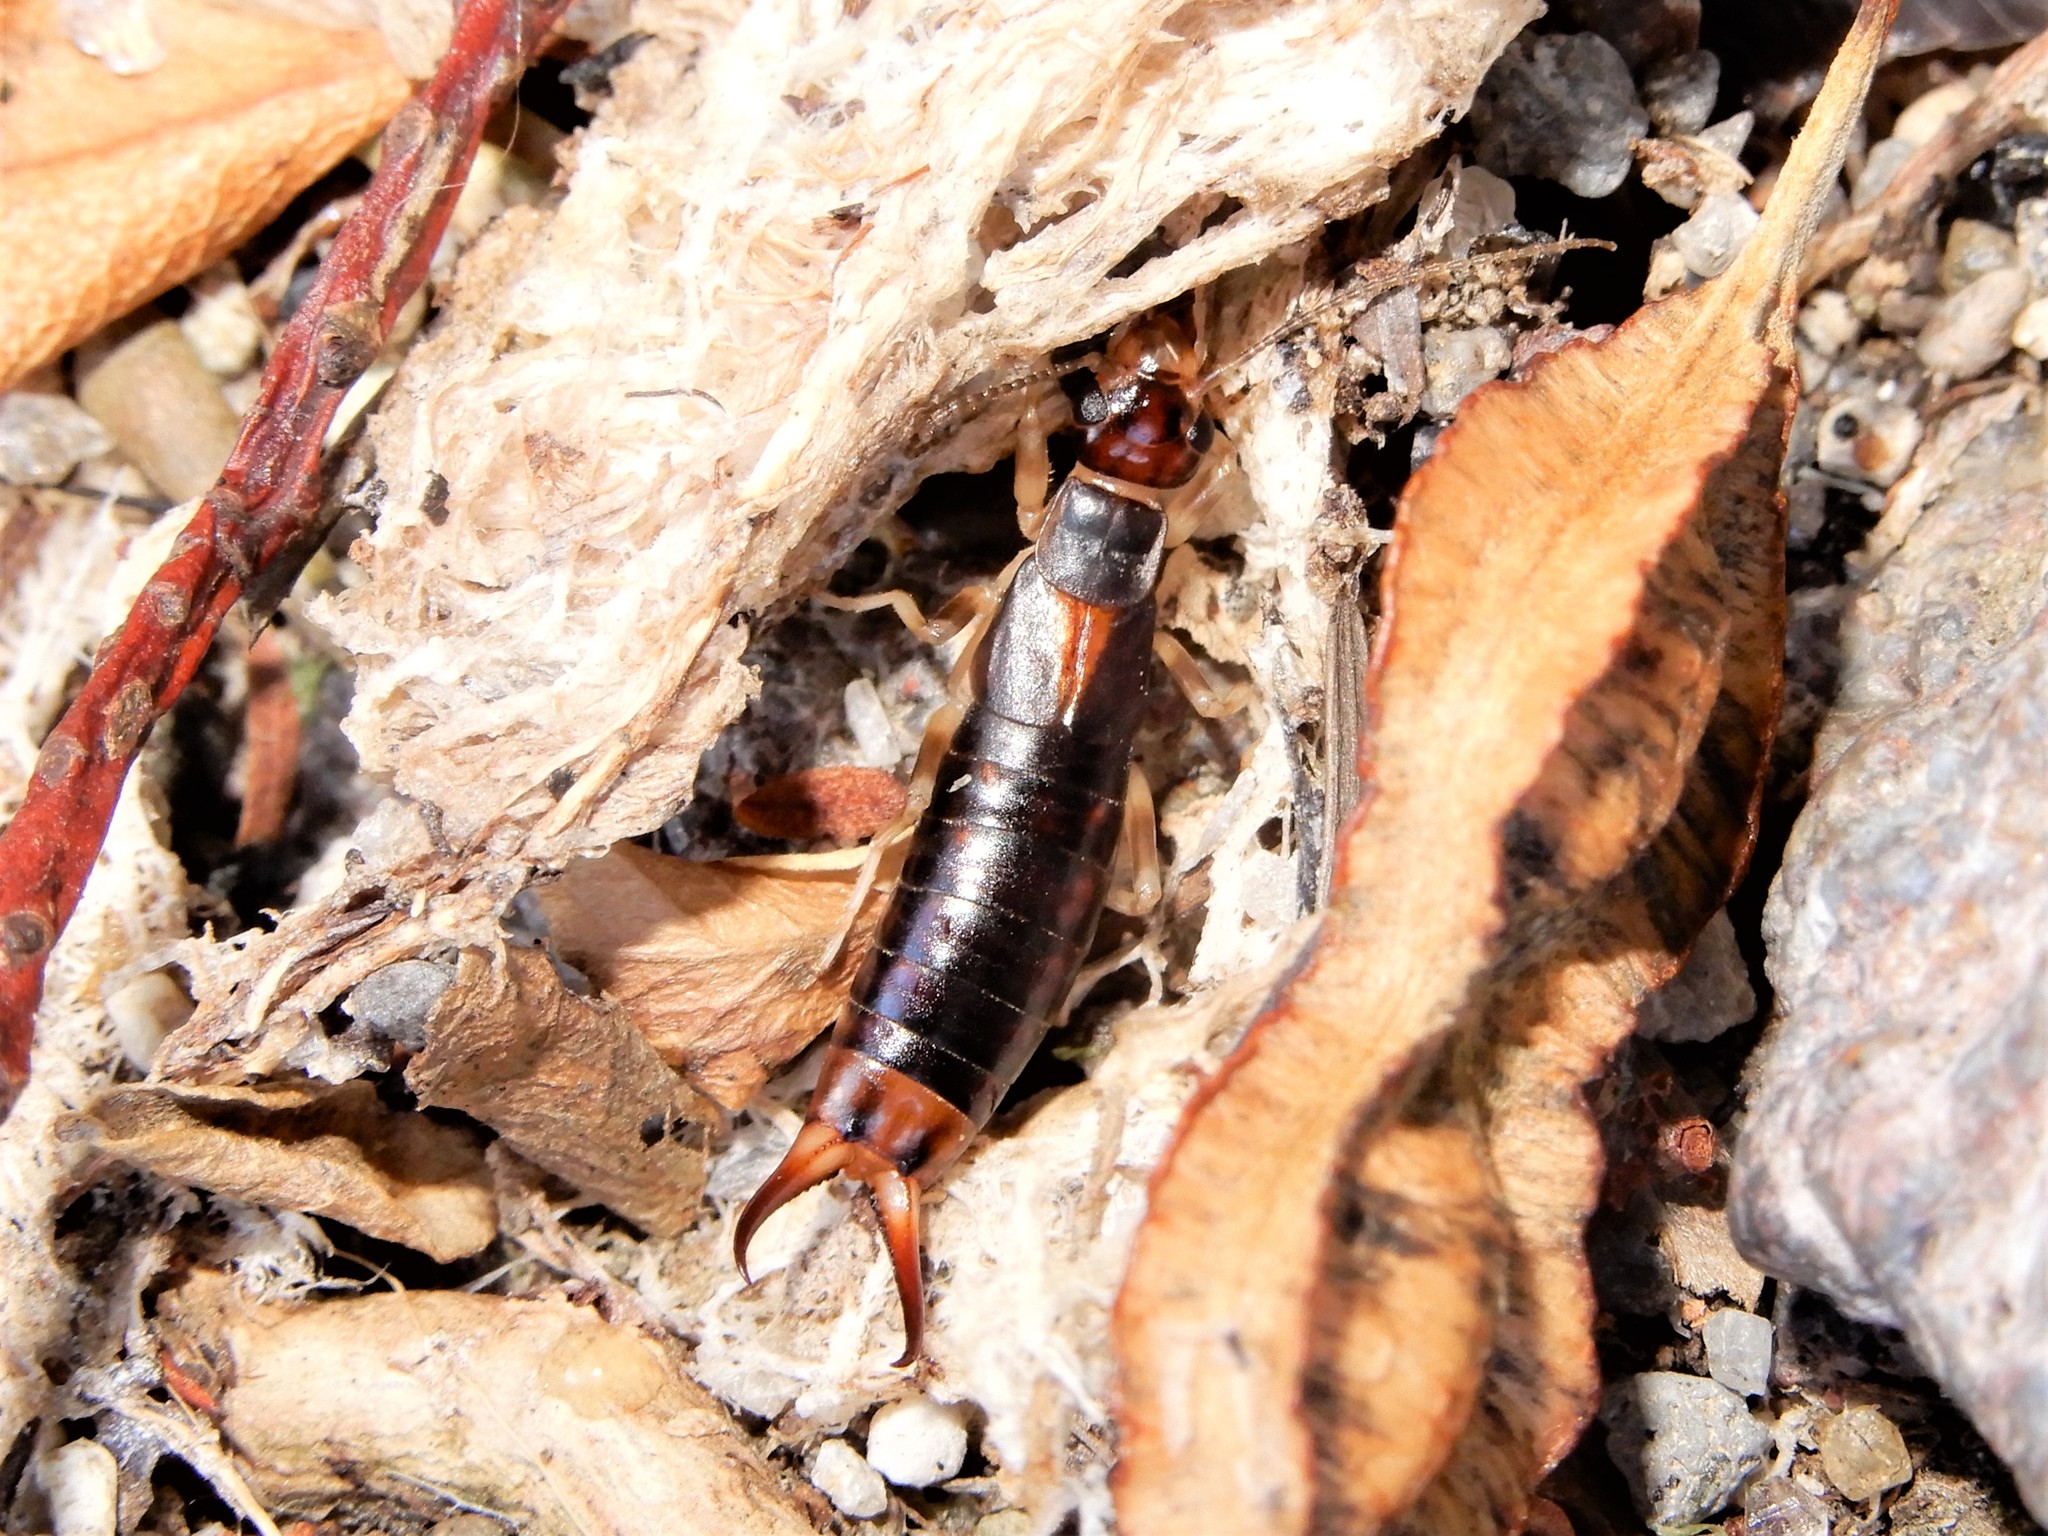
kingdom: Animalia
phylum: Arthropoda
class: Insecta
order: Dermaptera
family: Labiduridae
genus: Labidura
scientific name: Labidura riparia
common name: Striped earwig
